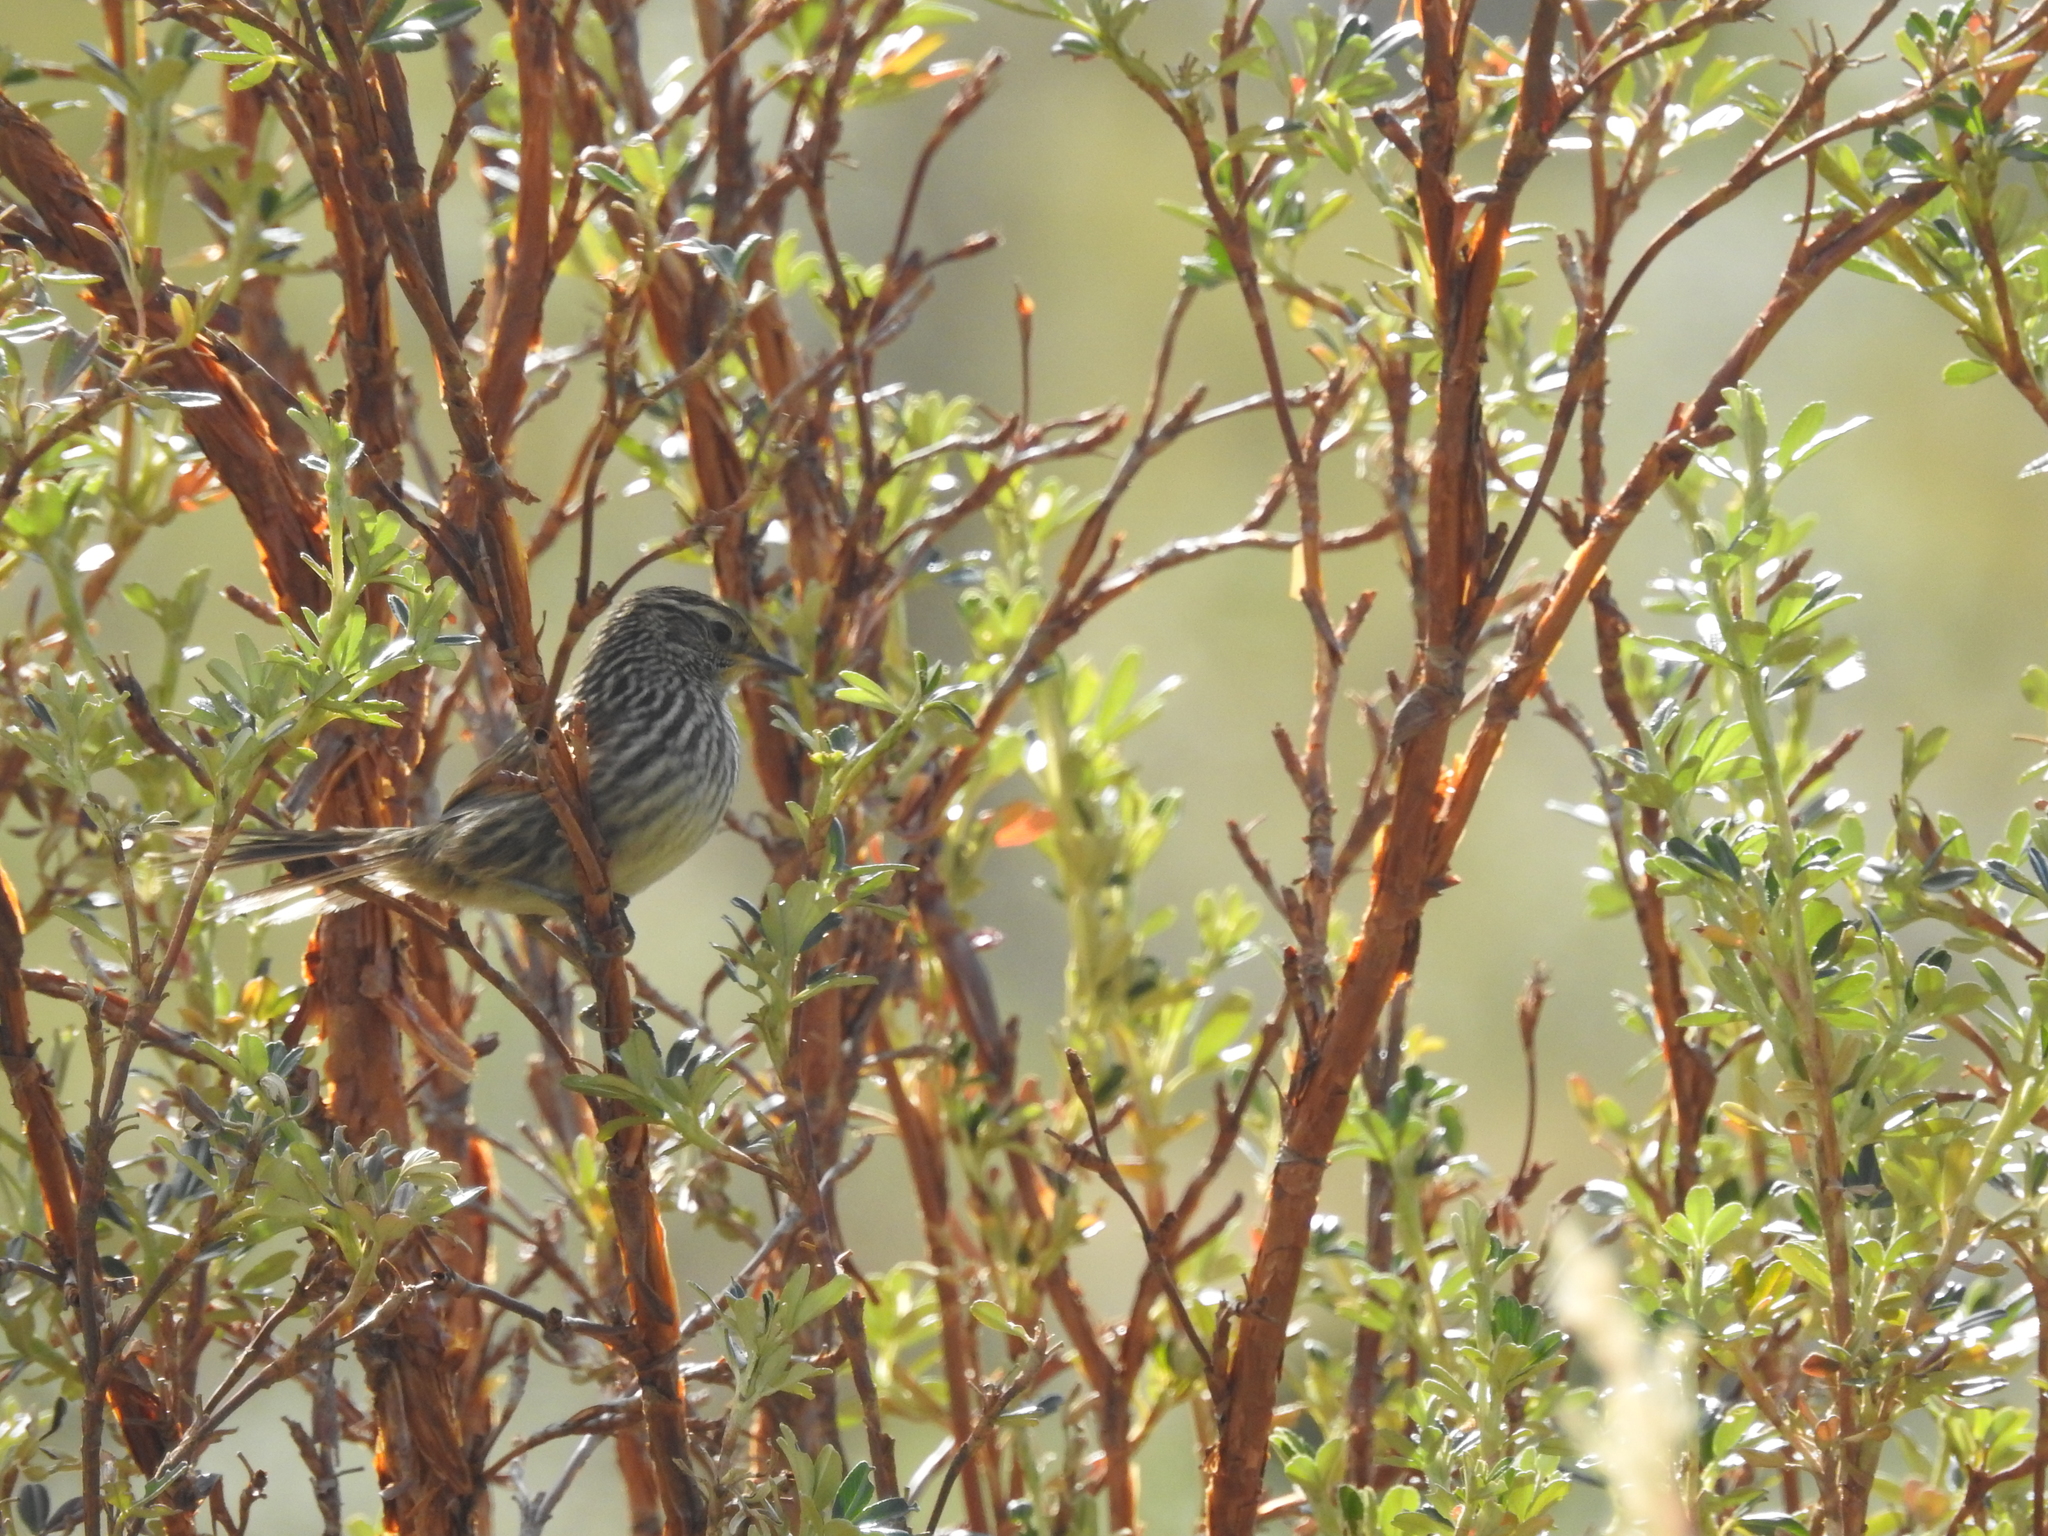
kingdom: Animalia
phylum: Chordata
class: Aves
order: Passeriformes
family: Furnariidae
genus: Asthenes
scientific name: Asthenes flammulata
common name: Many-striped canastero
